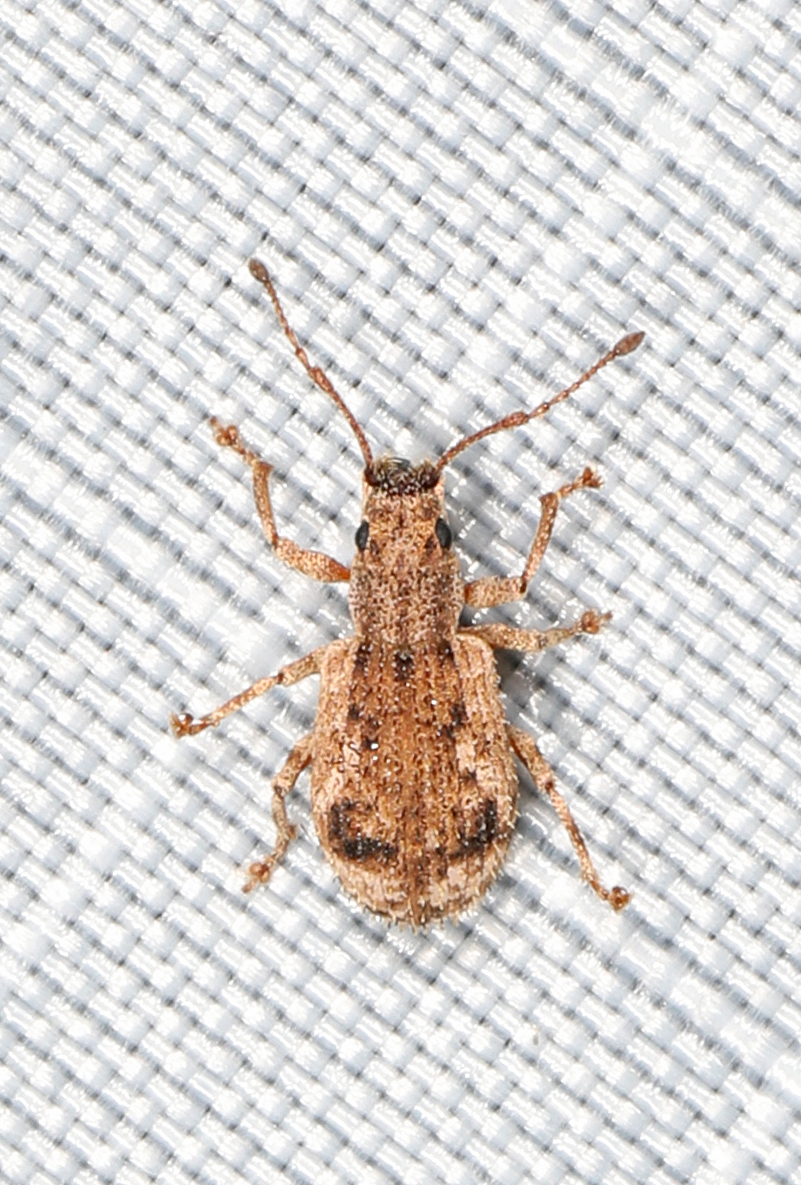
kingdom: Animalia
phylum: Arthropoda
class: Insecta
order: Coleoptera
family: Curculionidae
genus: Pseudoedophrys
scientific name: Pseudoedophrys hilleri
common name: Weevil
